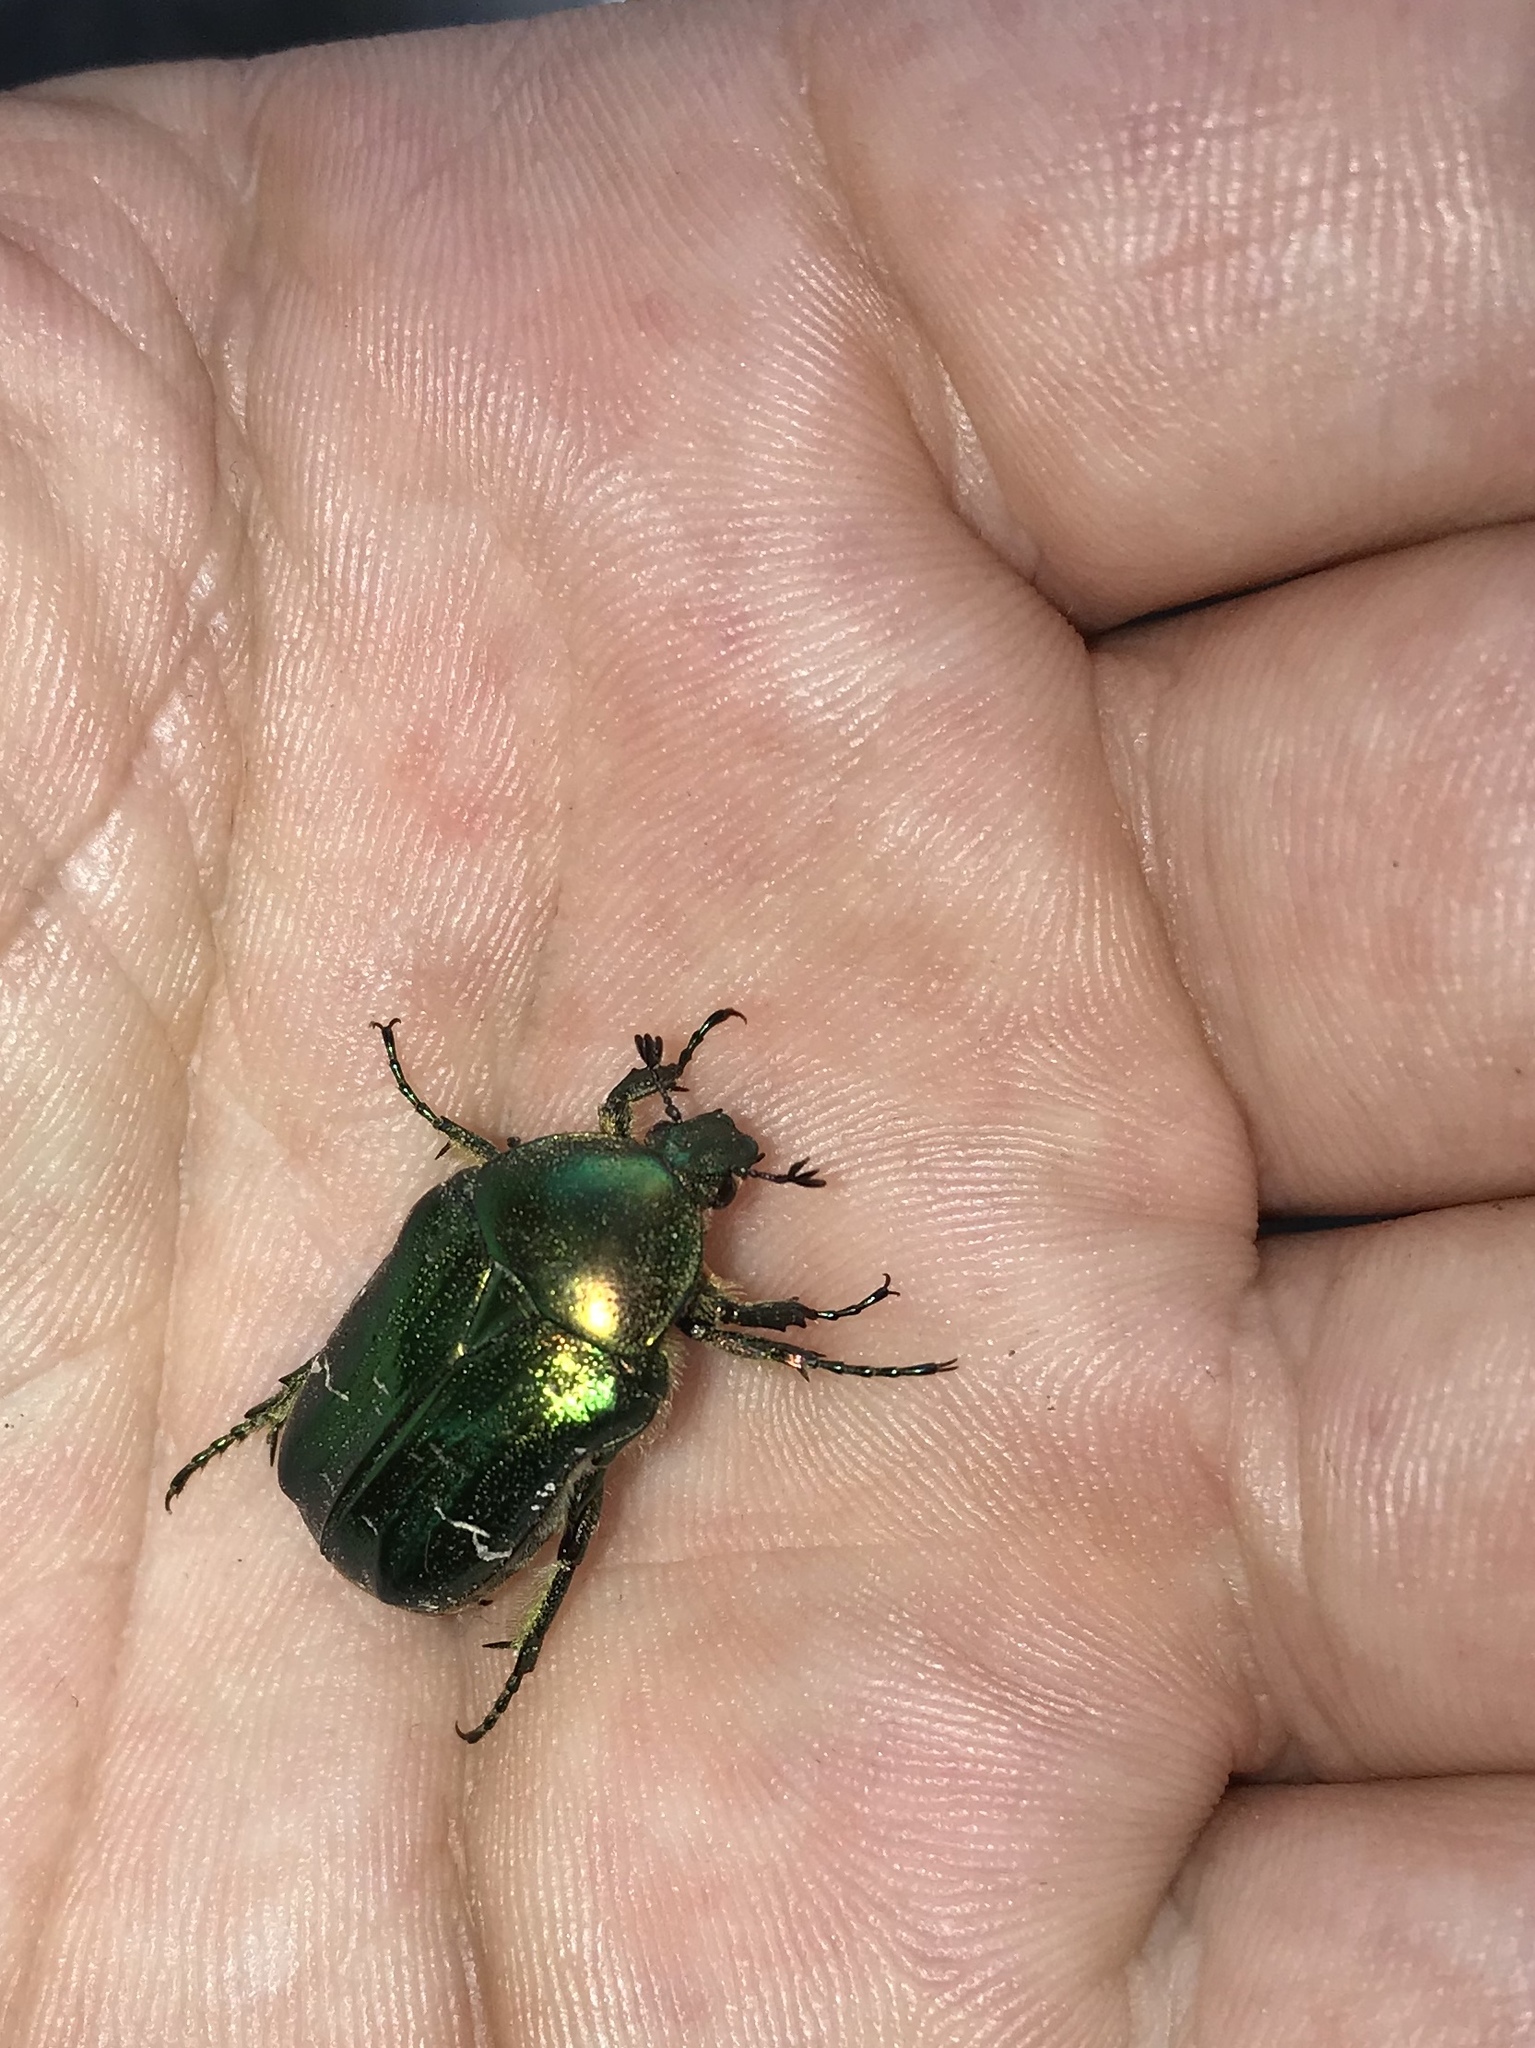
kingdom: Animalia
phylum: Arthropoda
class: Insecta
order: Coleoptera
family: Scarabaeidae
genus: Cetonia
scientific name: Cetonia aurata
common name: Rose chafer
